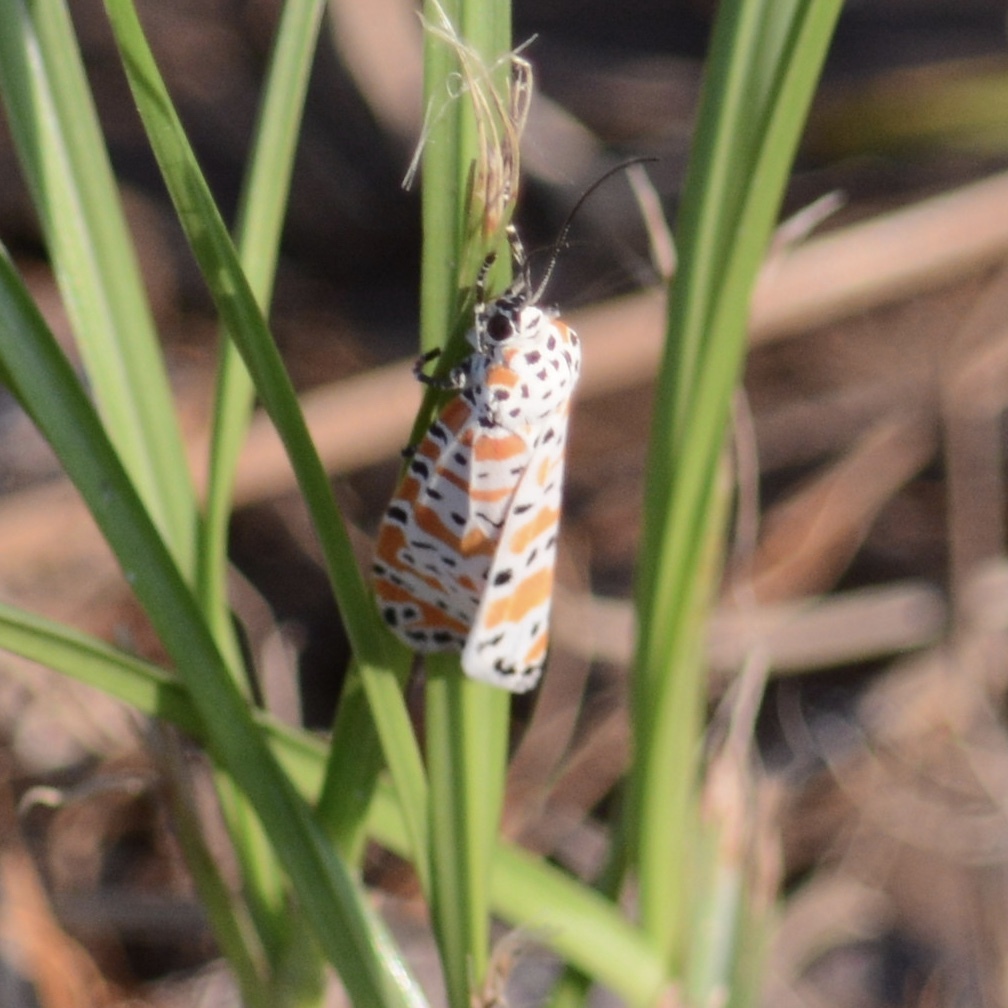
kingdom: Animalia
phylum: Arthropoda
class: Insecta
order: Lepidoptera
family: Erebidae
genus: Utetheisa
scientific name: Utetheisa ornatrix
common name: Beautiful utetheisa
